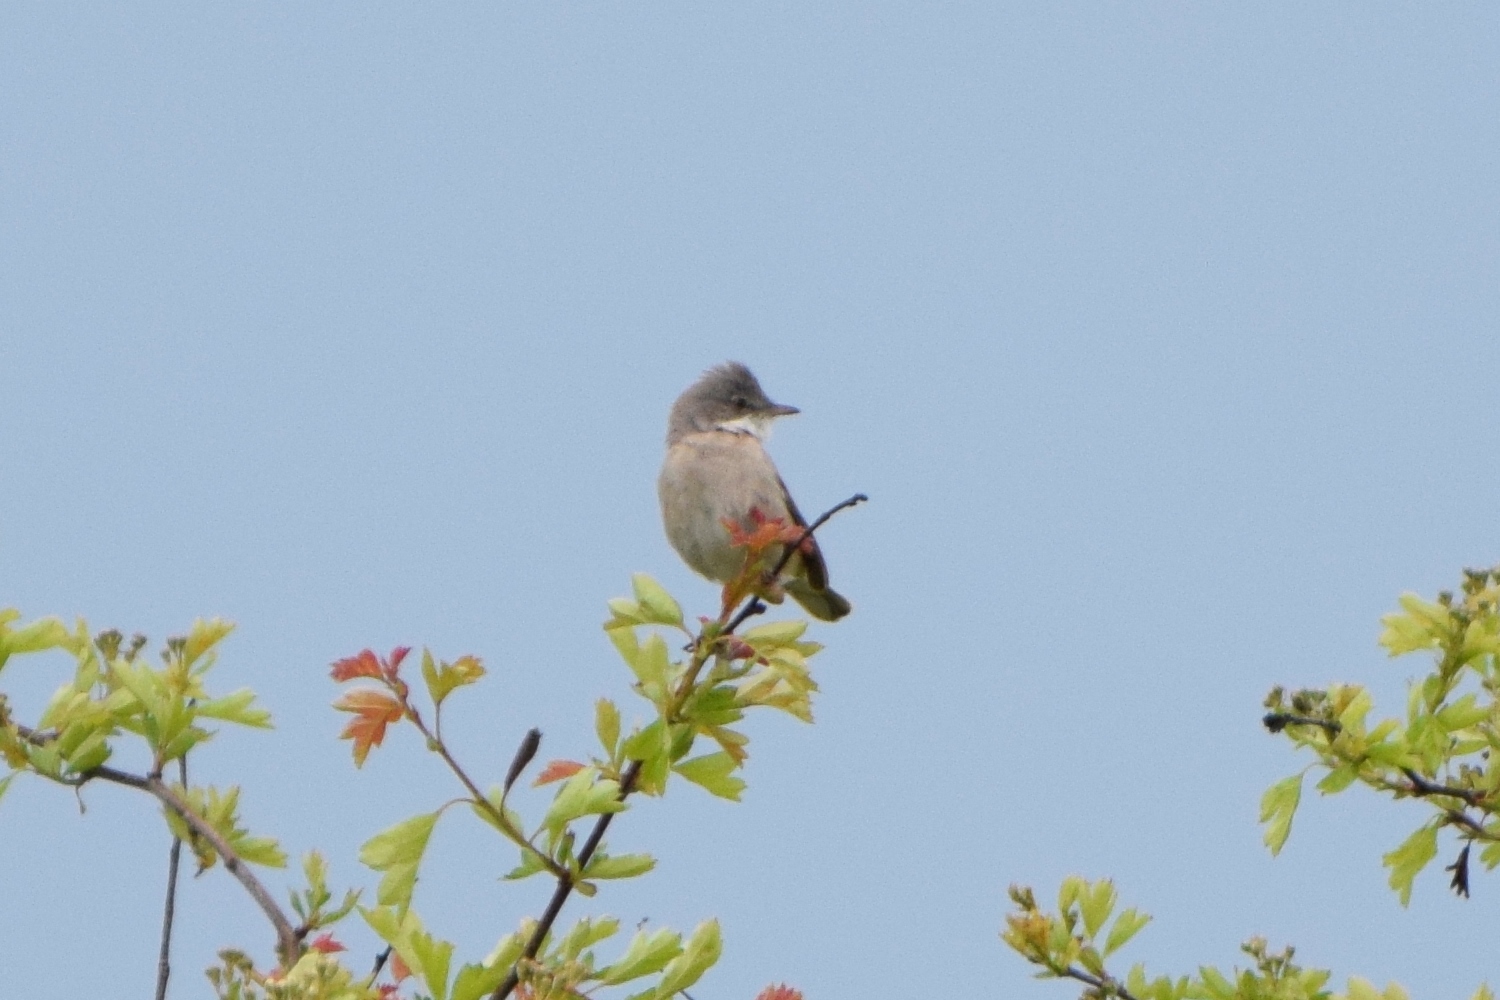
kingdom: Animalia
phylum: Chordata
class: Aves
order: Passeriformes
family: Sylviidae
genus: Sylvia
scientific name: Sylvia communis
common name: Common whitethroat
